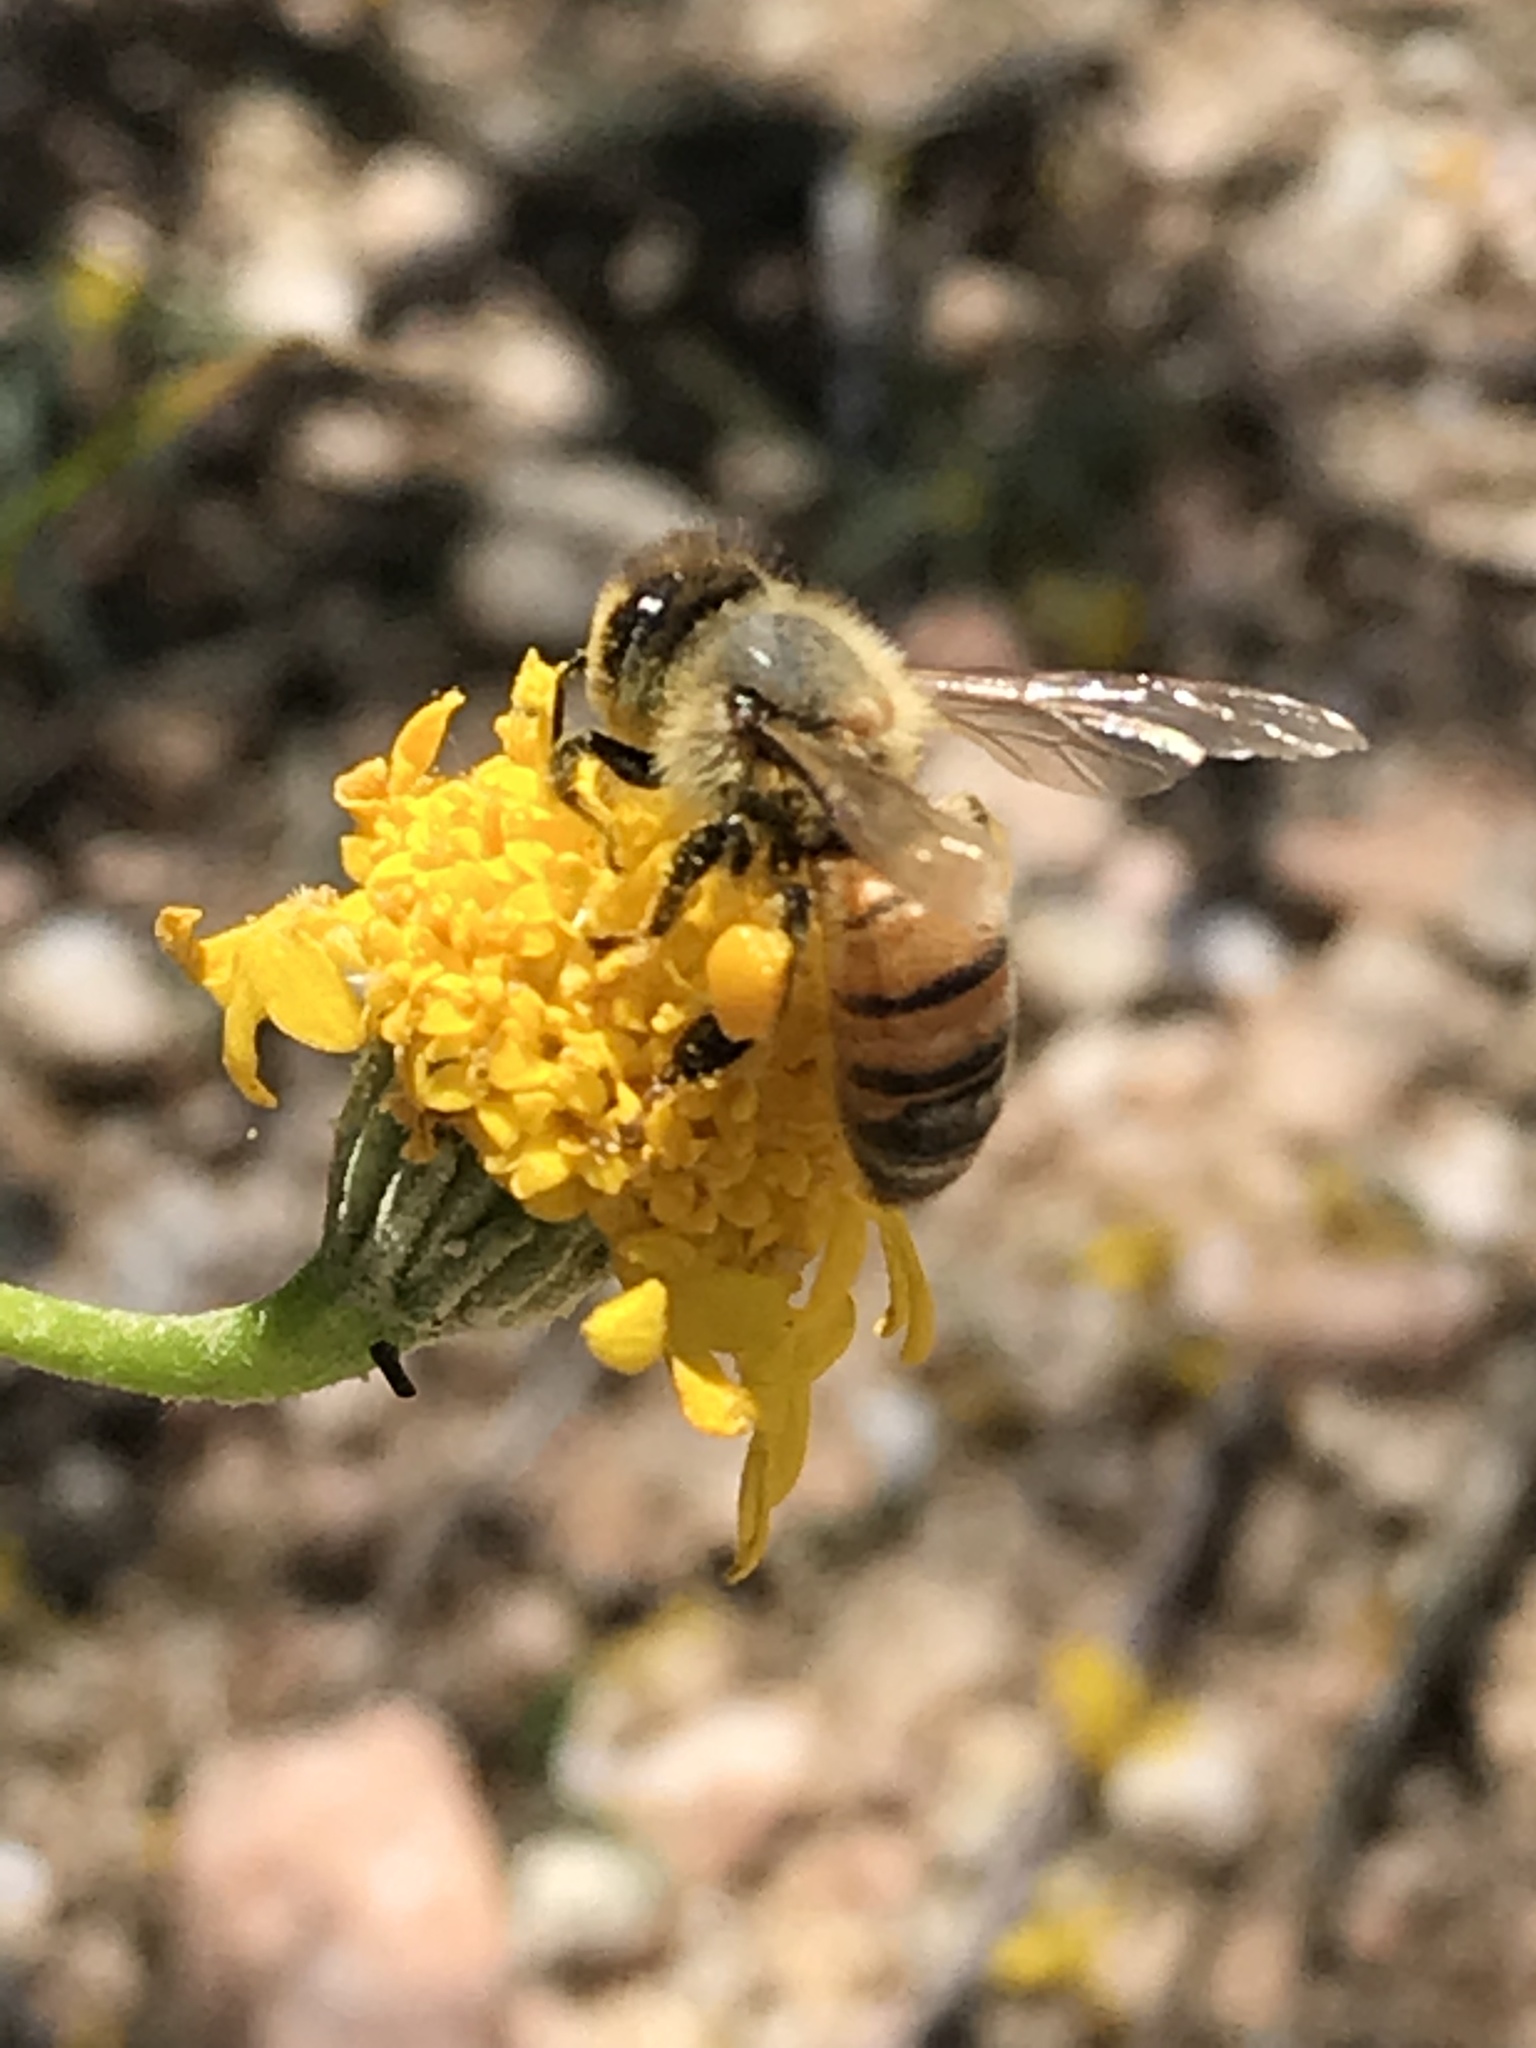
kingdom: Animalia
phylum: Arthropoda
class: Insecta
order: Hymenoptera
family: Apidae
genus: Apis
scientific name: Apis mellifera
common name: Honey bee
